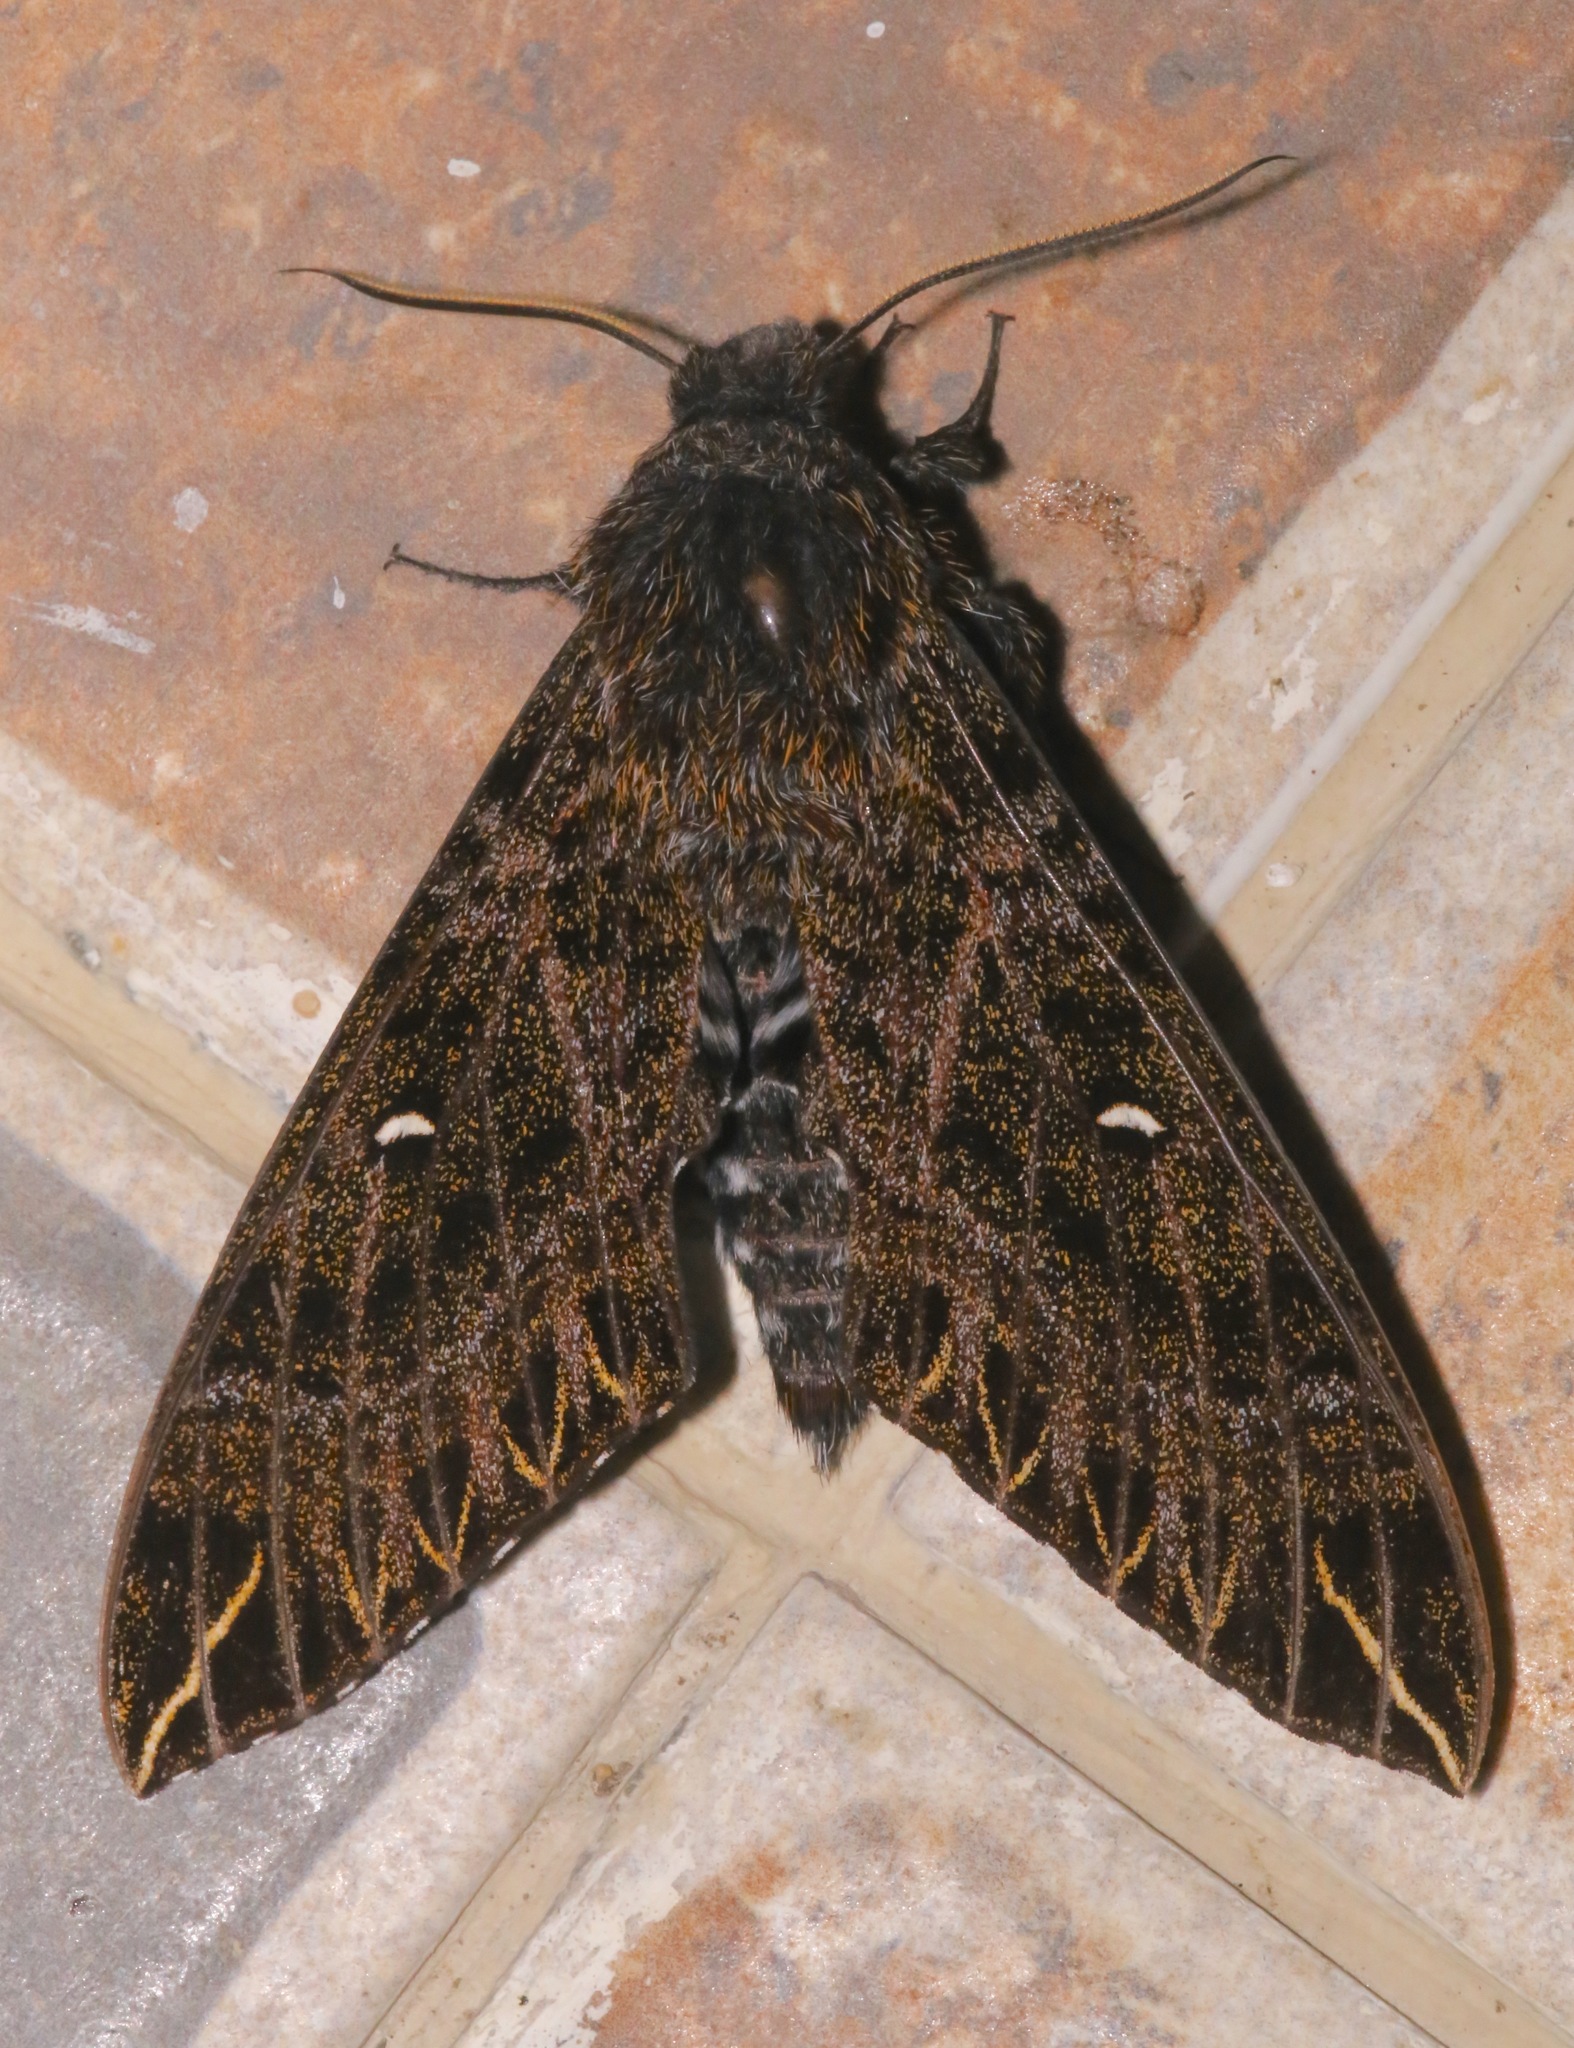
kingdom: Animalia
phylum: Arthropoda
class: Insecta
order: Lepidoptera
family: Sphingidae
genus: Euryglottis
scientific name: Euryglottis dognini
